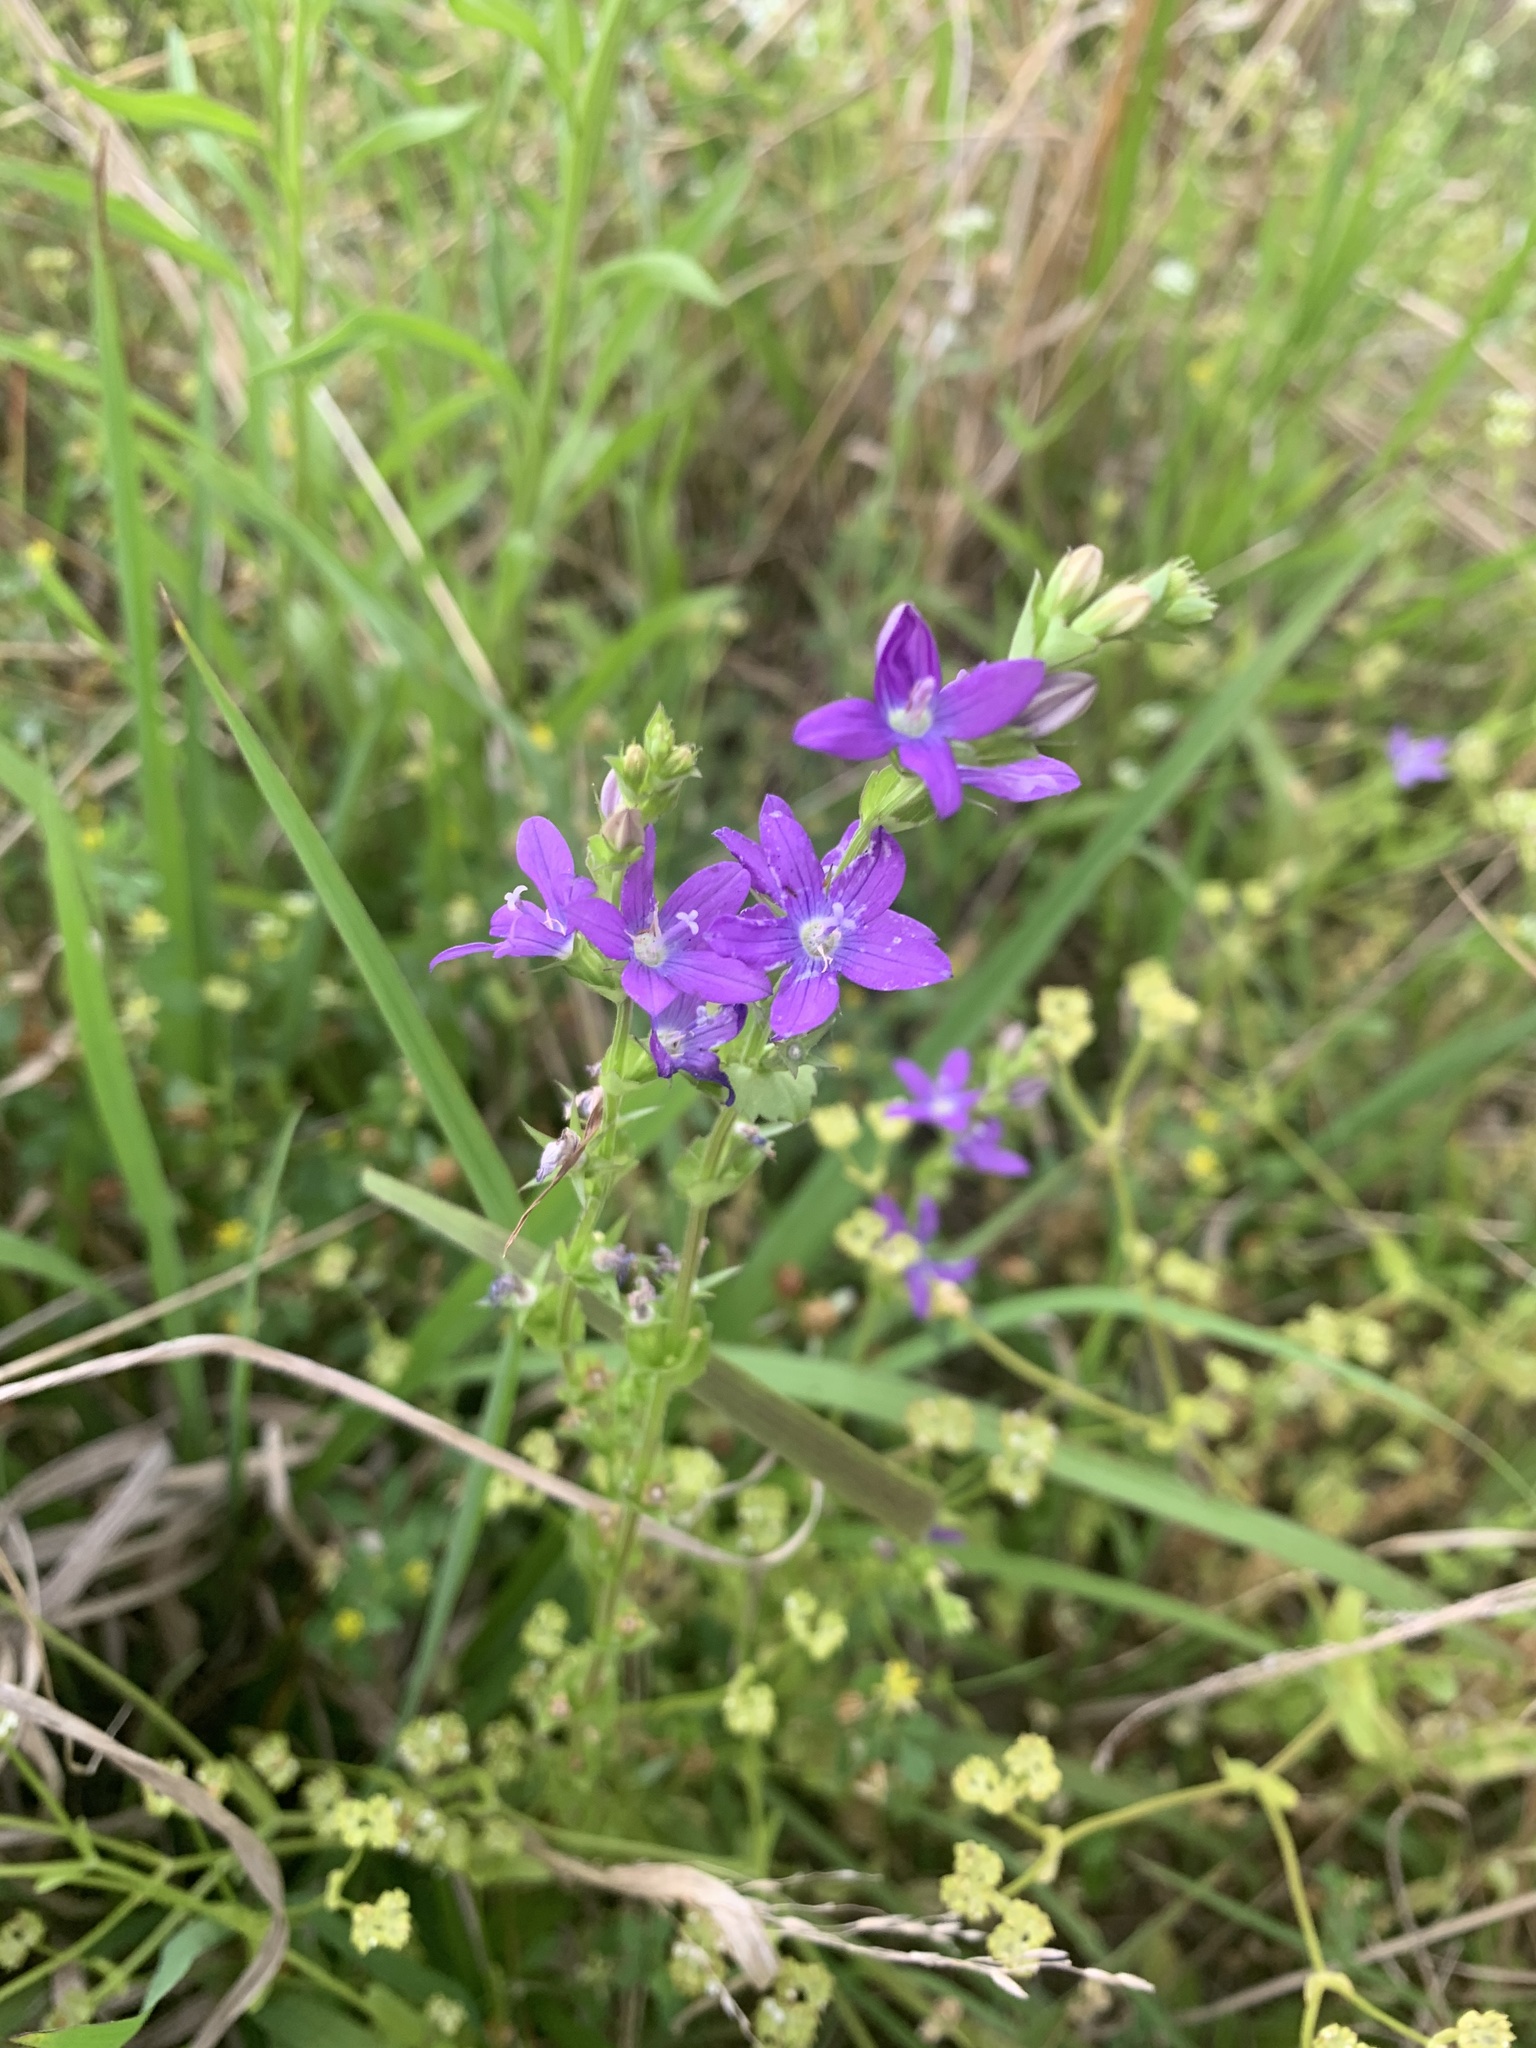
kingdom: Plantae
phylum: Tracheophyta
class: Magnoliopsida
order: Asterales
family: Campanulaceae
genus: Triodanis
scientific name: Triodanis perfoliata
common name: Clasping venus' looking-glass
